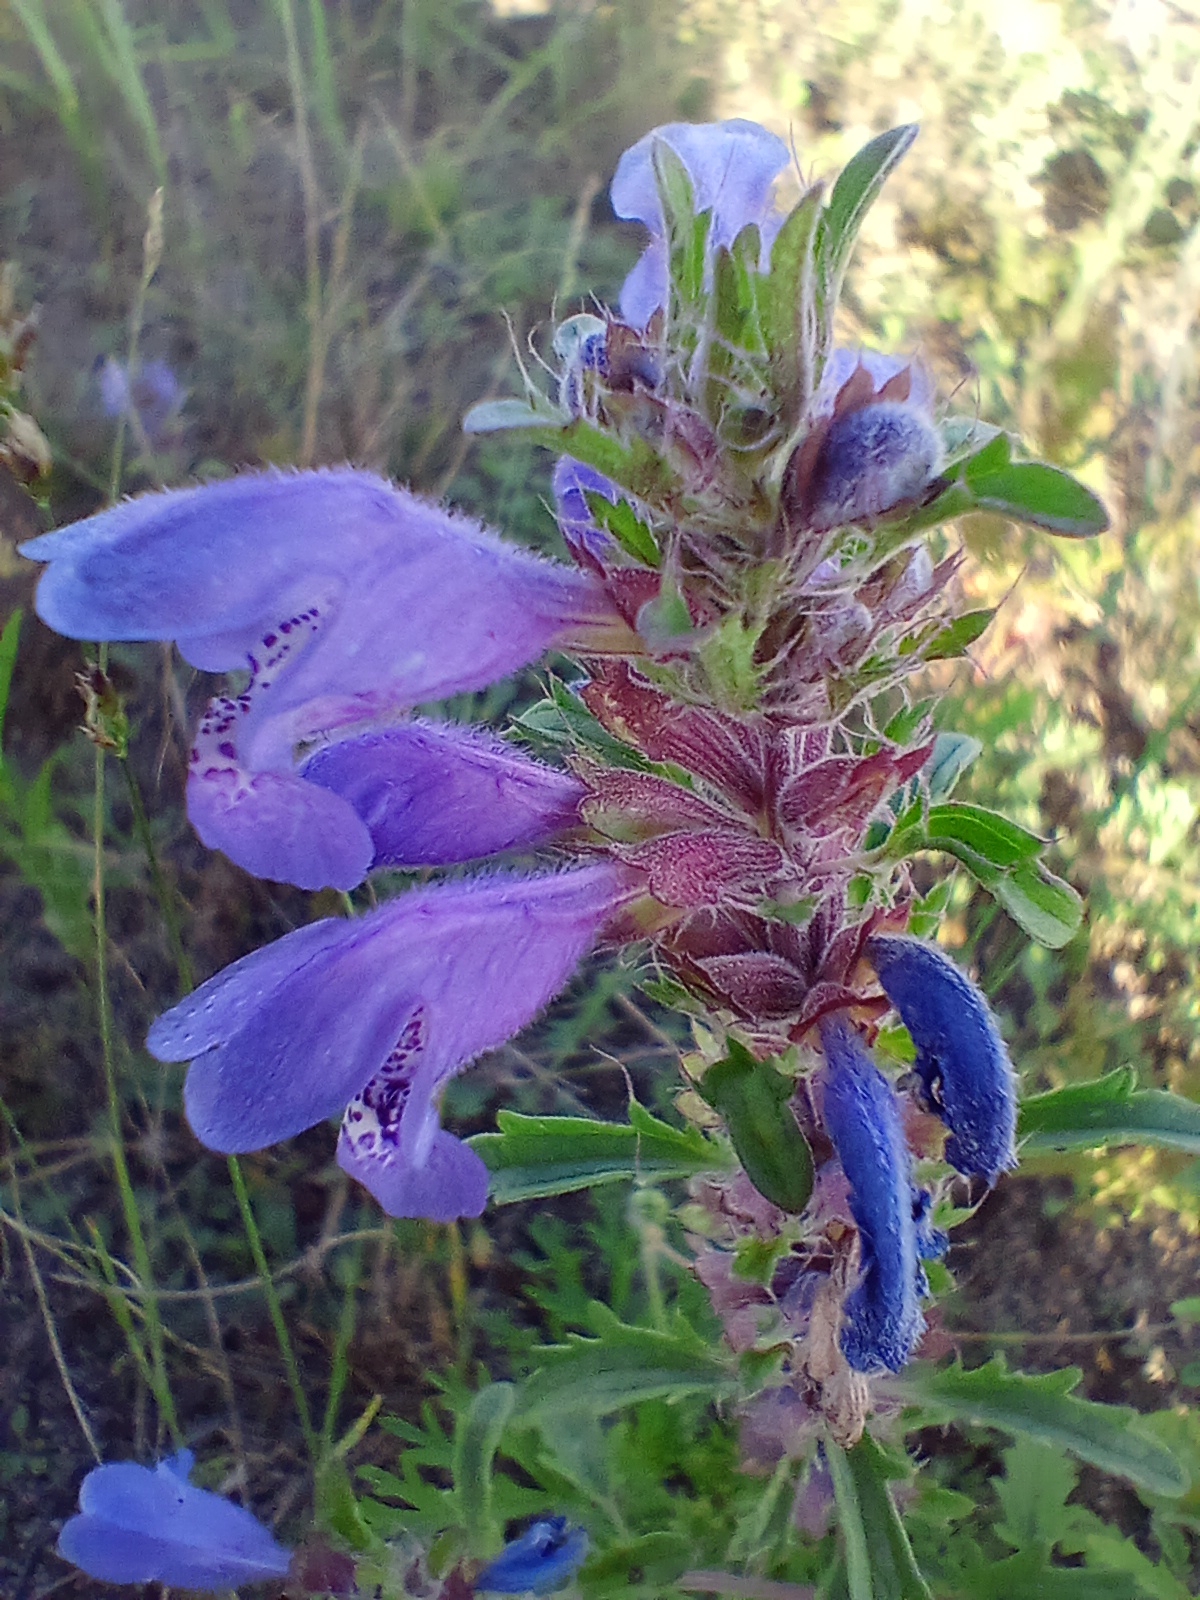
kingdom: Plantae
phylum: Tracheophyta
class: Magnoliopsida
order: Lamiales
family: Lamiaceae
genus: Dracocephalum
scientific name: Dracocephalum olchonense
